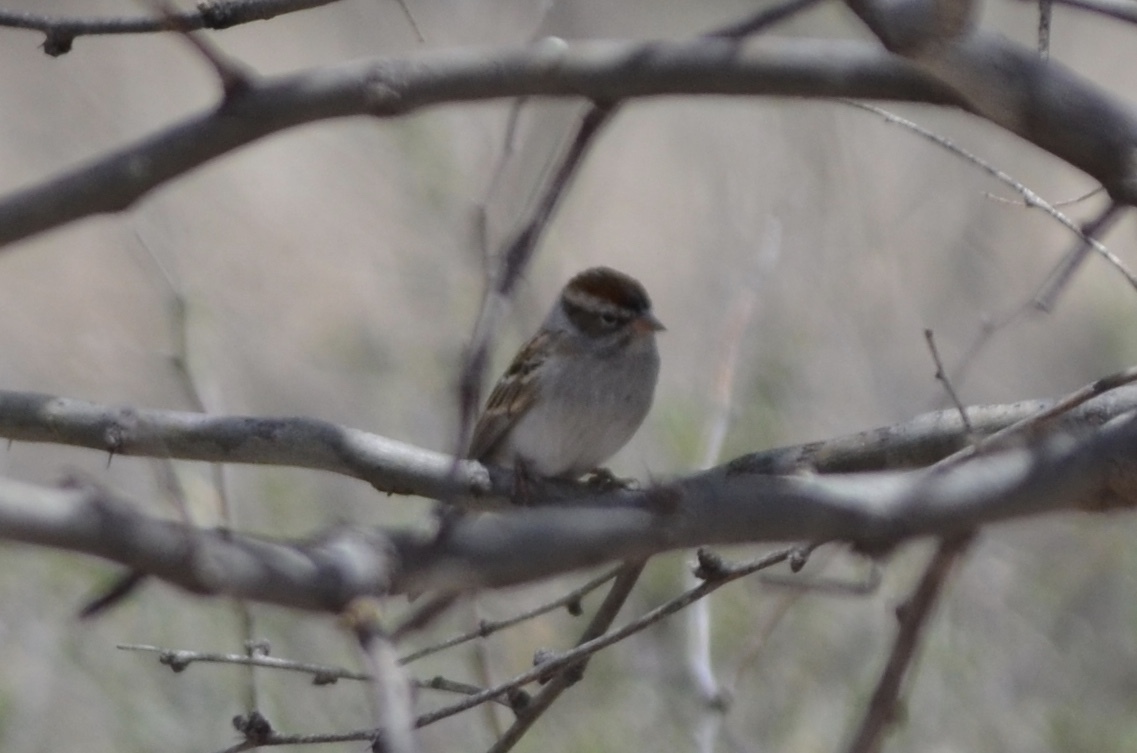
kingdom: Animalia
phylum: Chordata
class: Aves
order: Passeriformes
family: Passerellidae
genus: Spizella
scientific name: Spizella passerina
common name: Chipping sparrow
